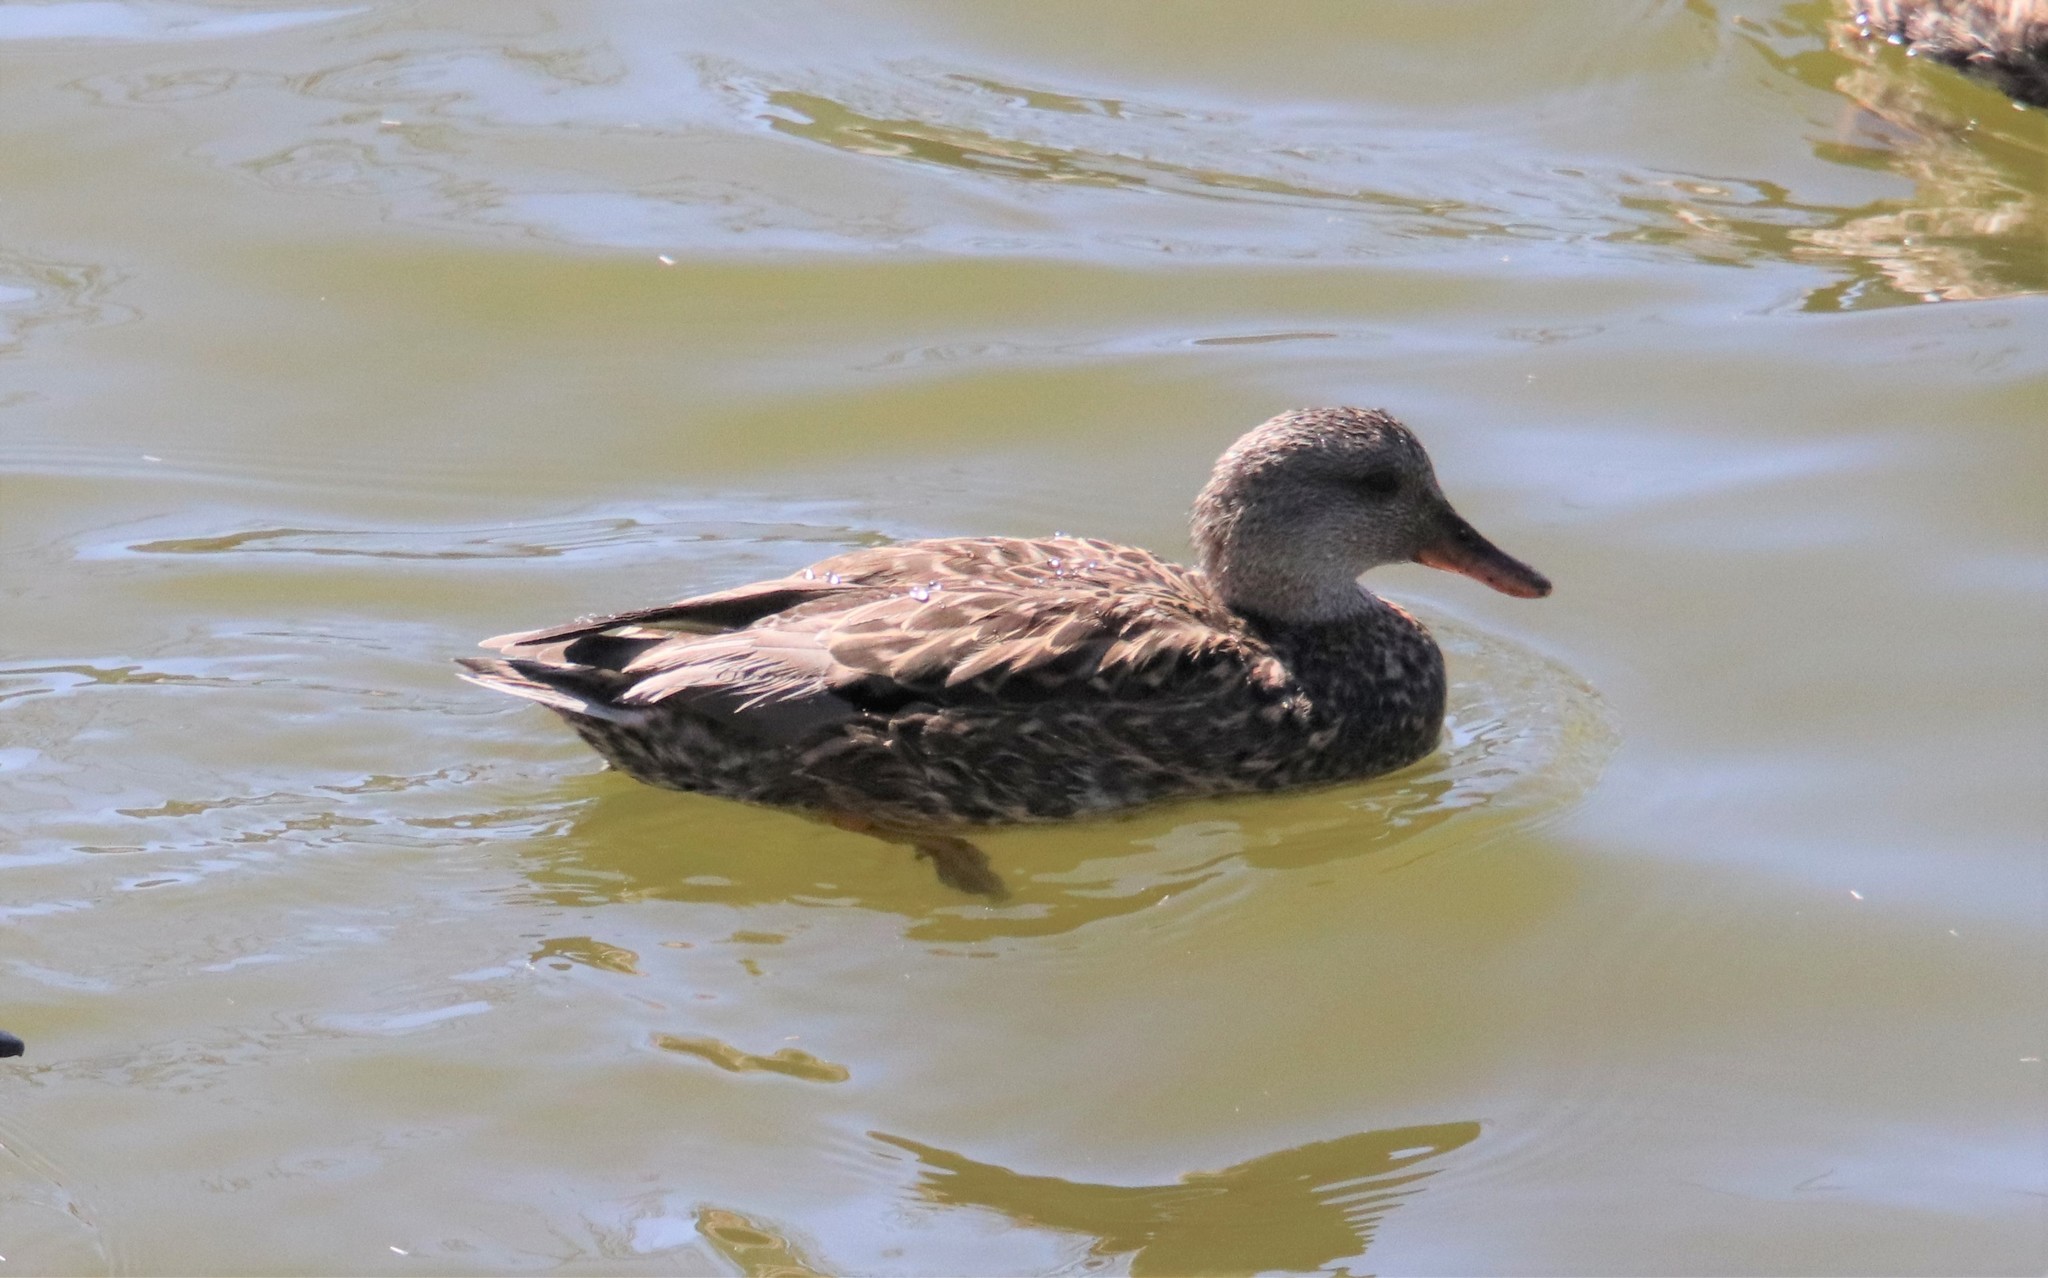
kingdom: Animalia
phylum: Chordata
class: Aves
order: Anseriformes
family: Anatidae
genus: Mareca
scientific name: Mareca strepera
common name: Gadwall
